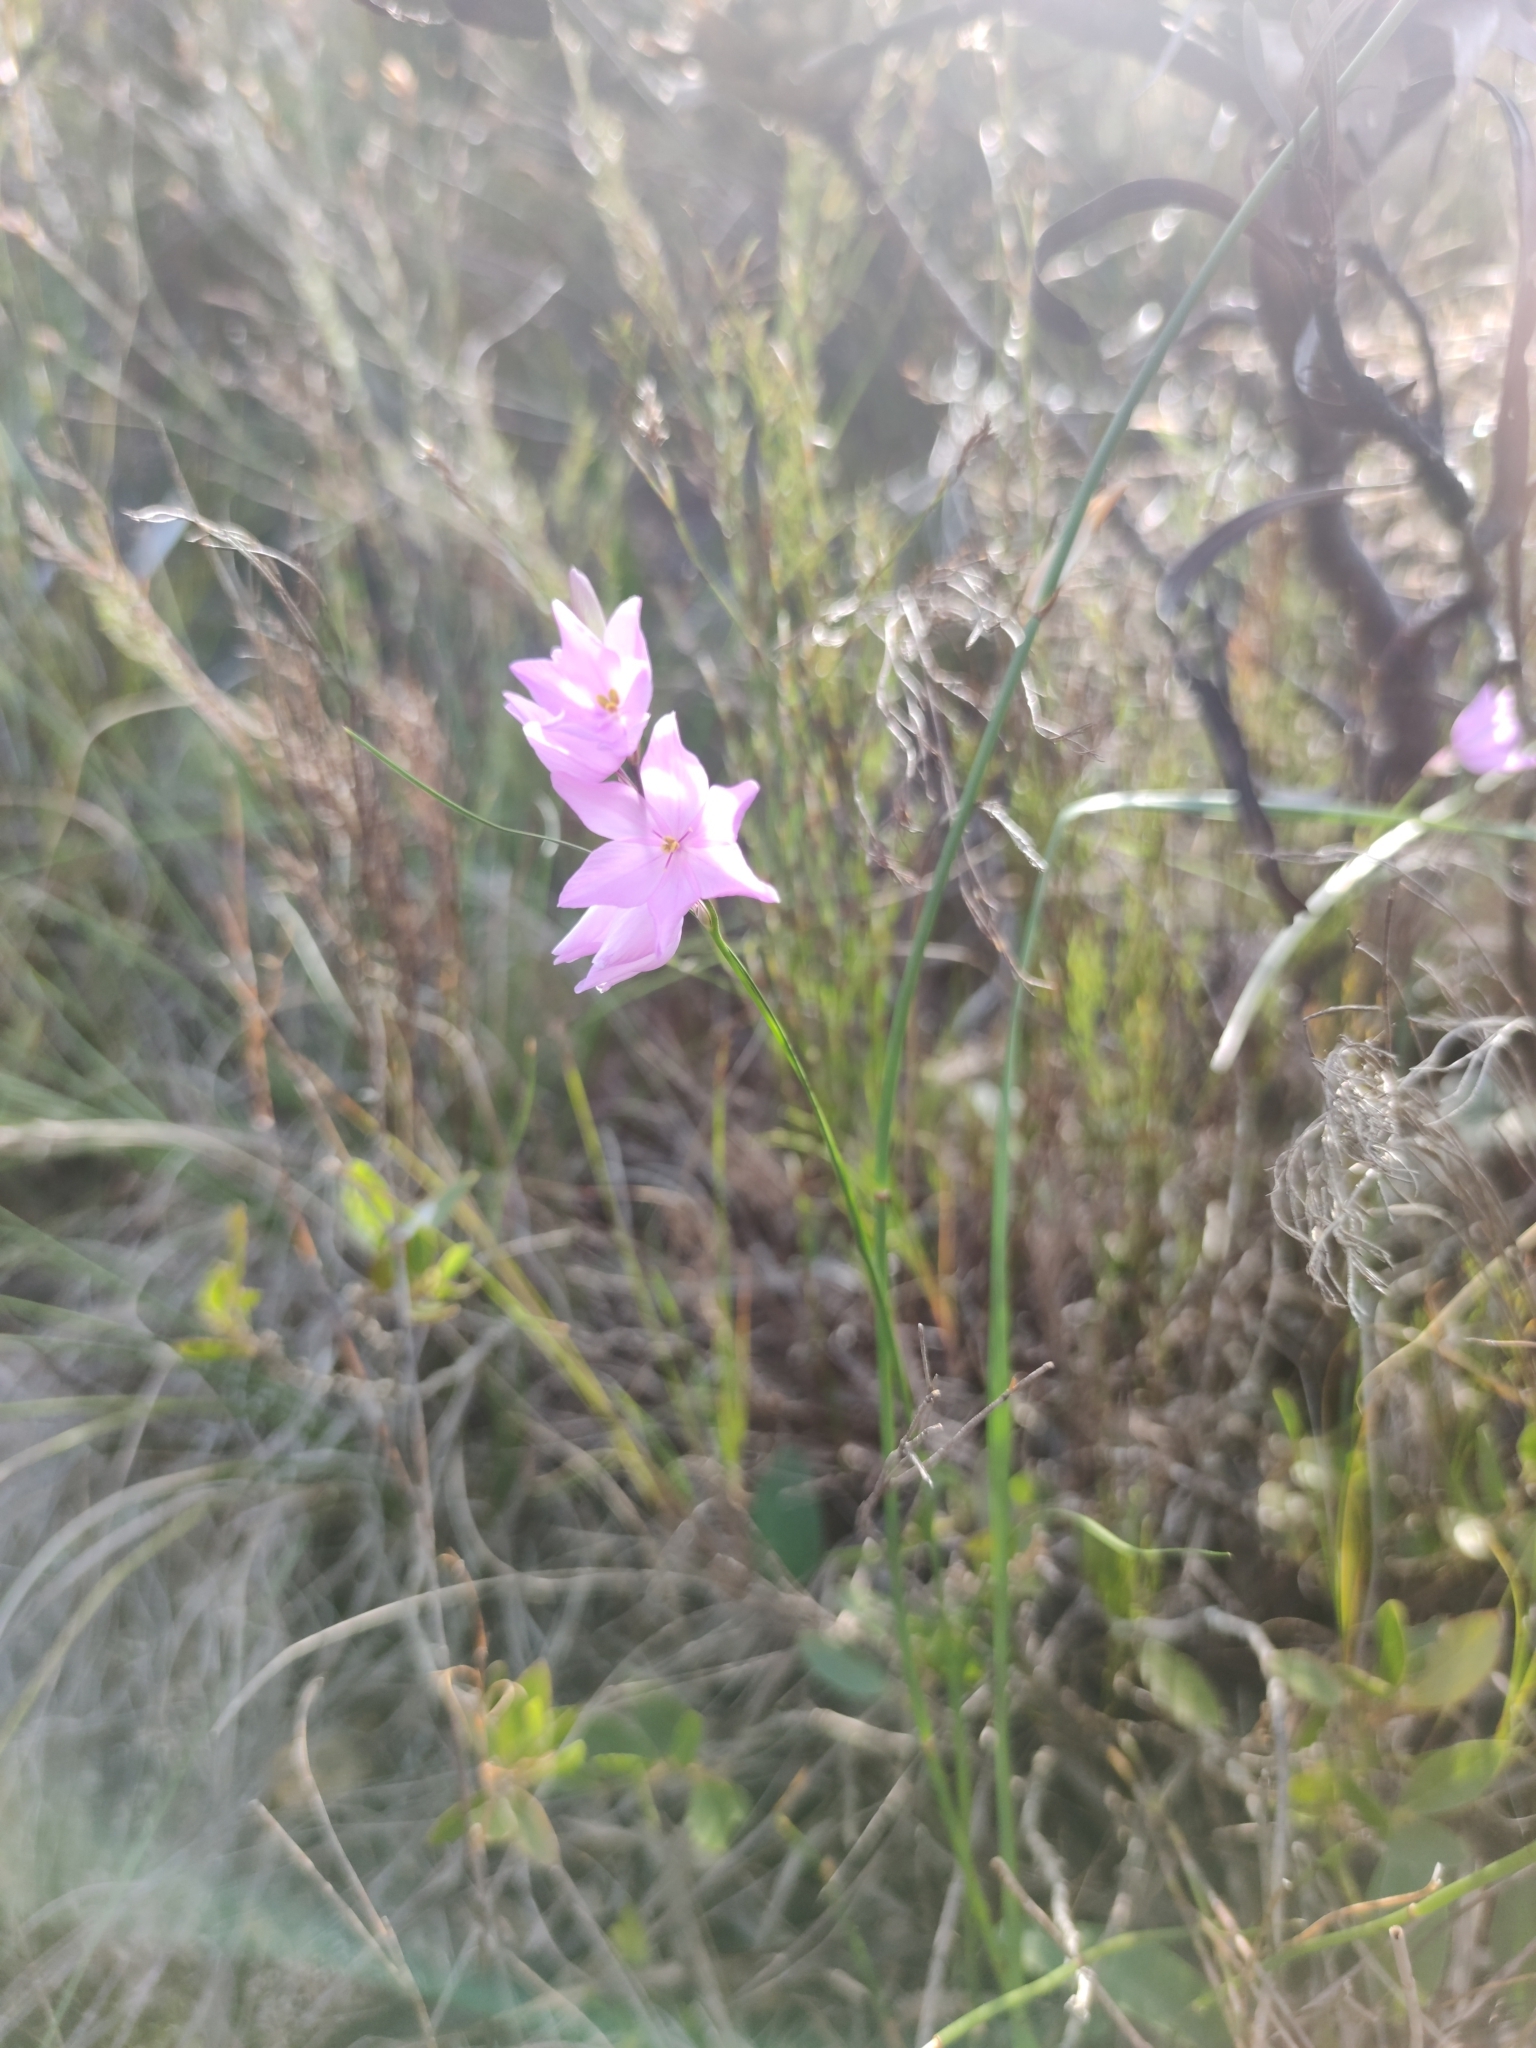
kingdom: Plantae
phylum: Tracheophyta
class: Liliopsida
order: Asparagales
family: Iridaceae
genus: Ixia
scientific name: Ixia micrandra
